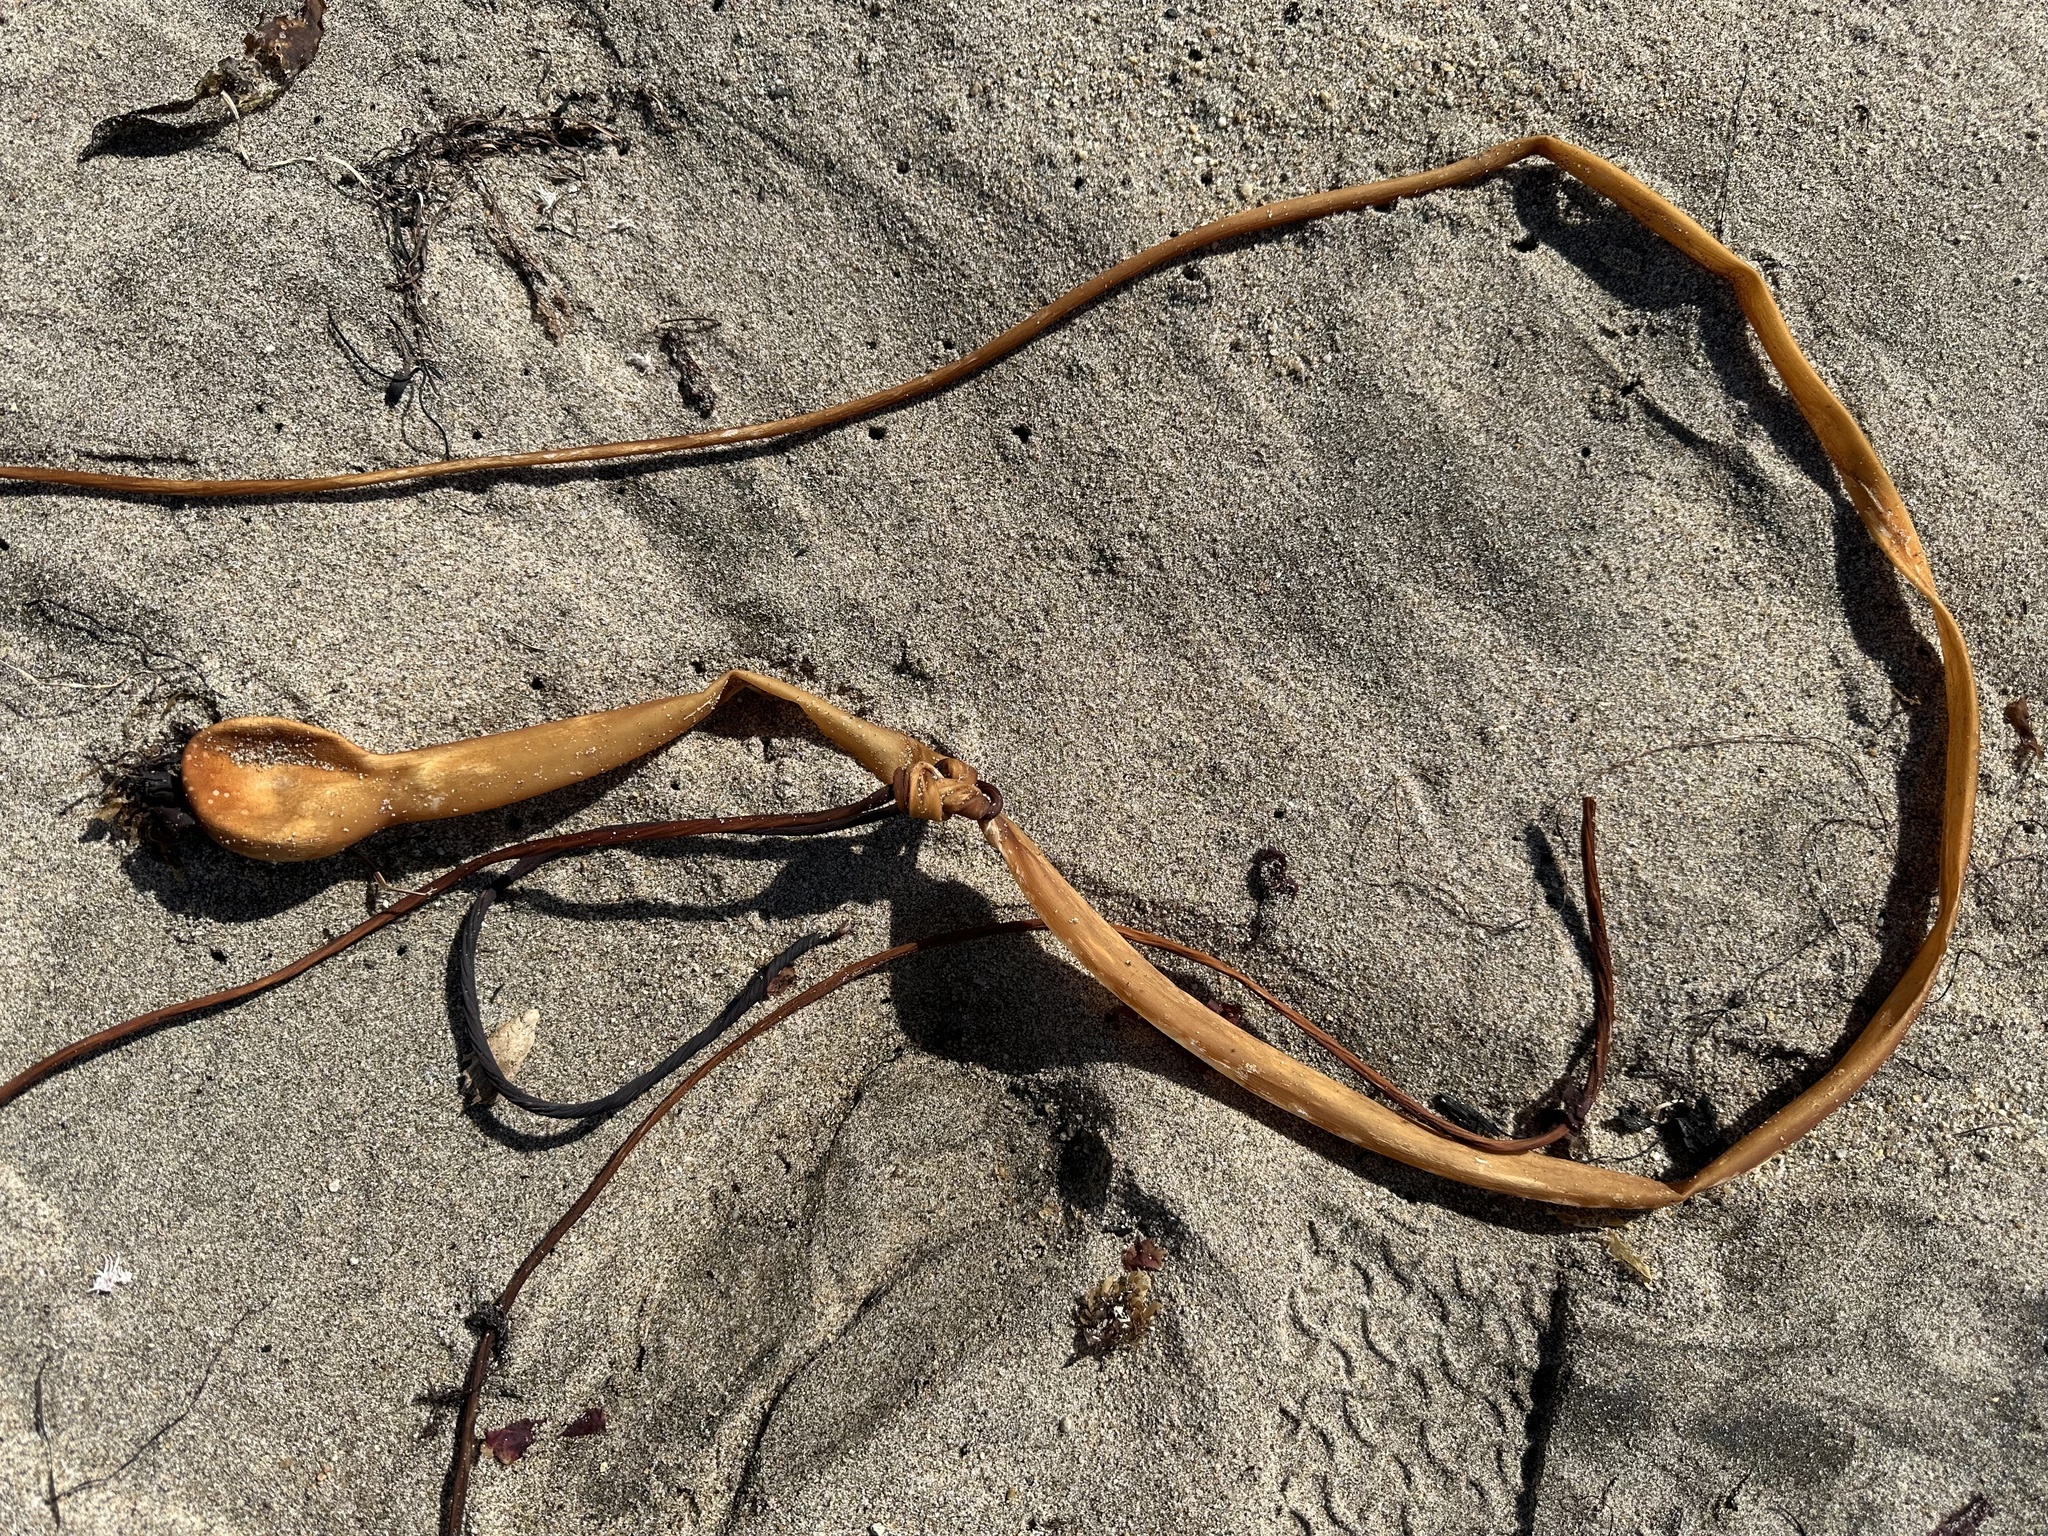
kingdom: Chromista
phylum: Ochrophyta
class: Phaeophyceae
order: Laminariales
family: Laminariaceae
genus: Nereocystis
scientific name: Nereocystis luetkeana
